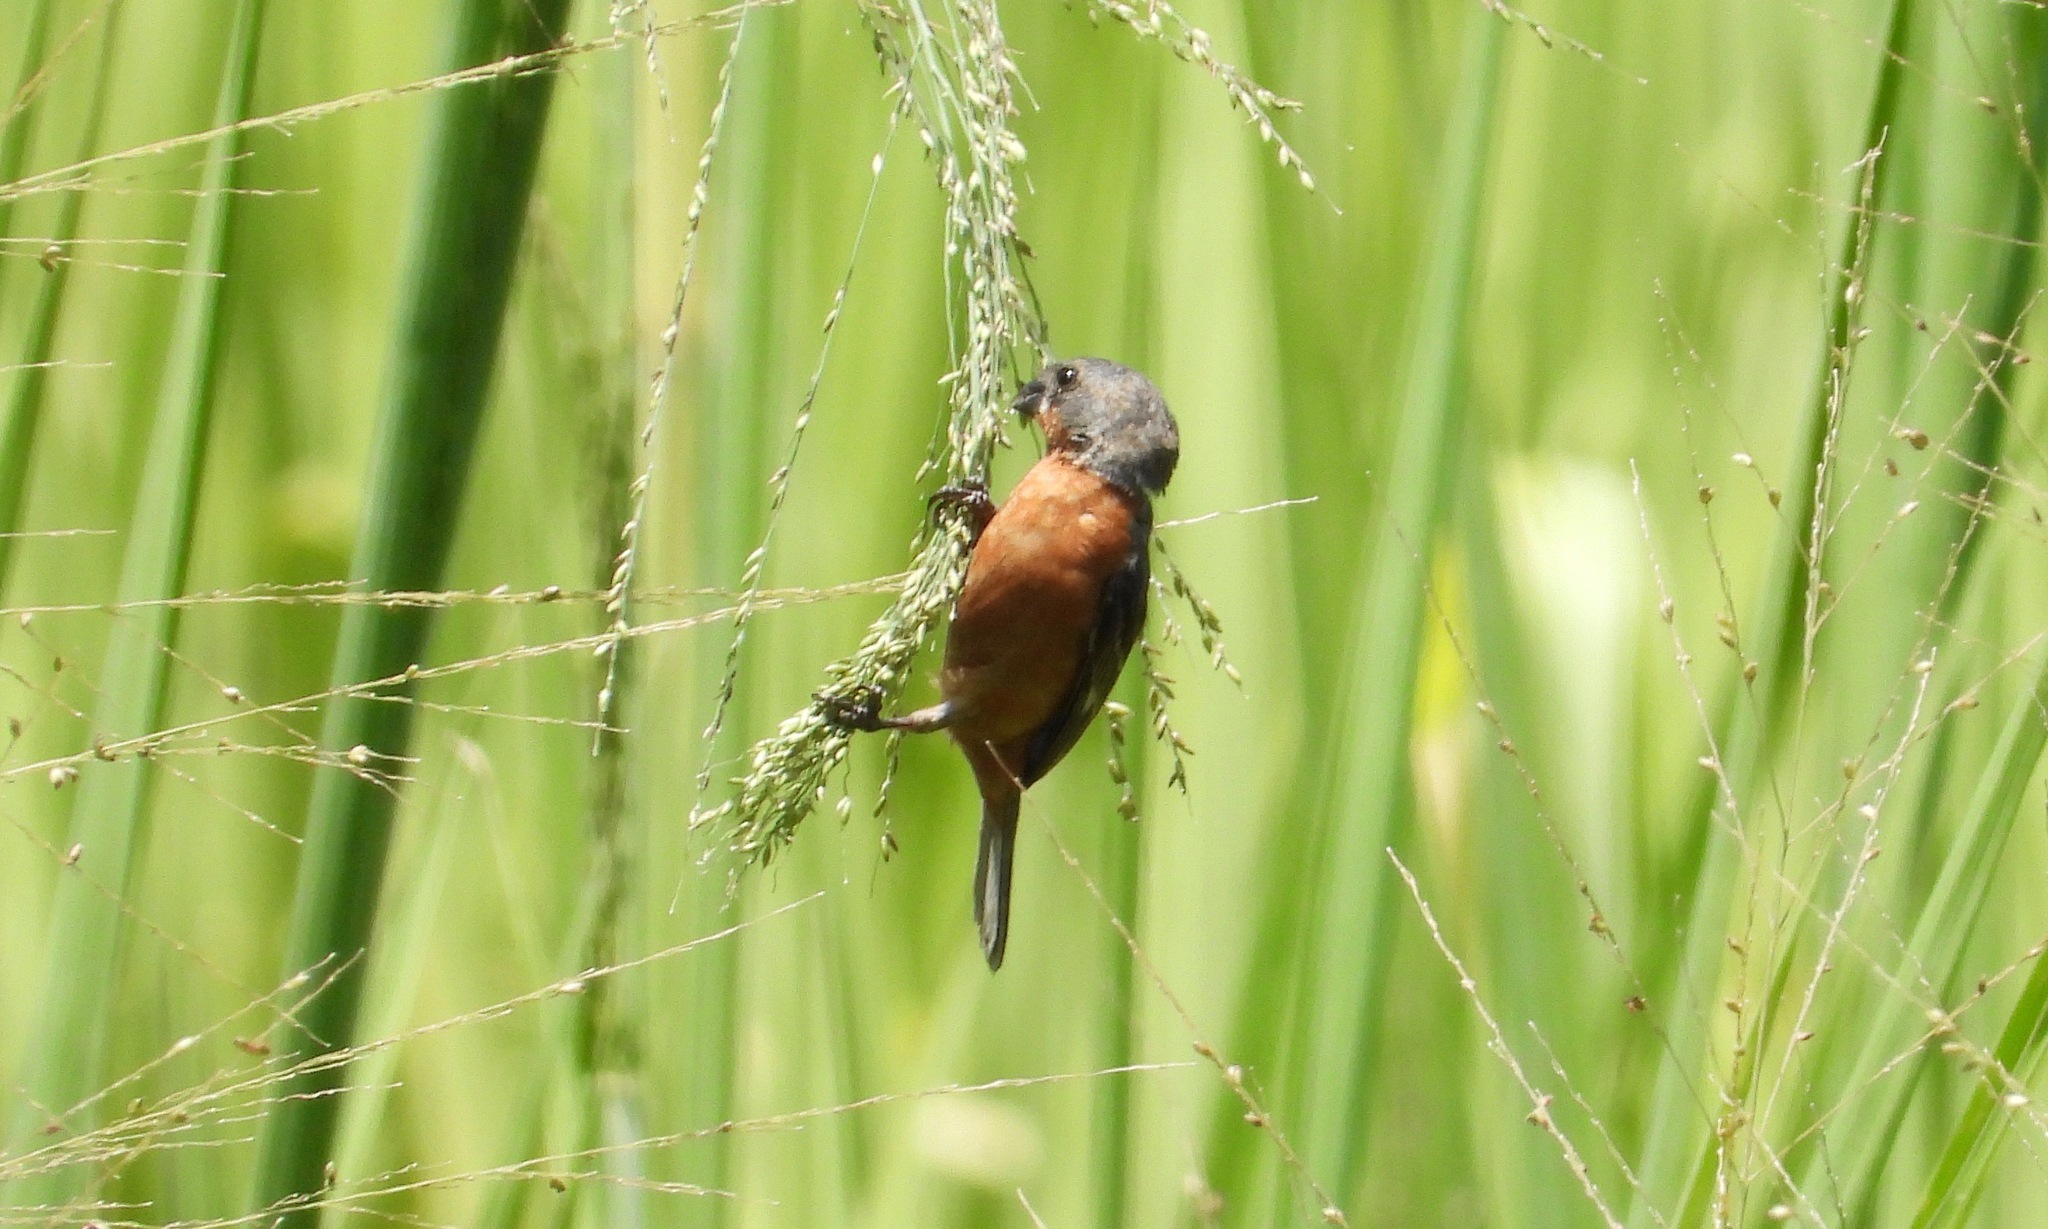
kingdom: Animalia
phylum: Chordata
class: Aves
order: Passeriformes
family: Thraupidae
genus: Sporophila
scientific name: Sporophila minuta
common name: Ruddy-breasted seedeater
